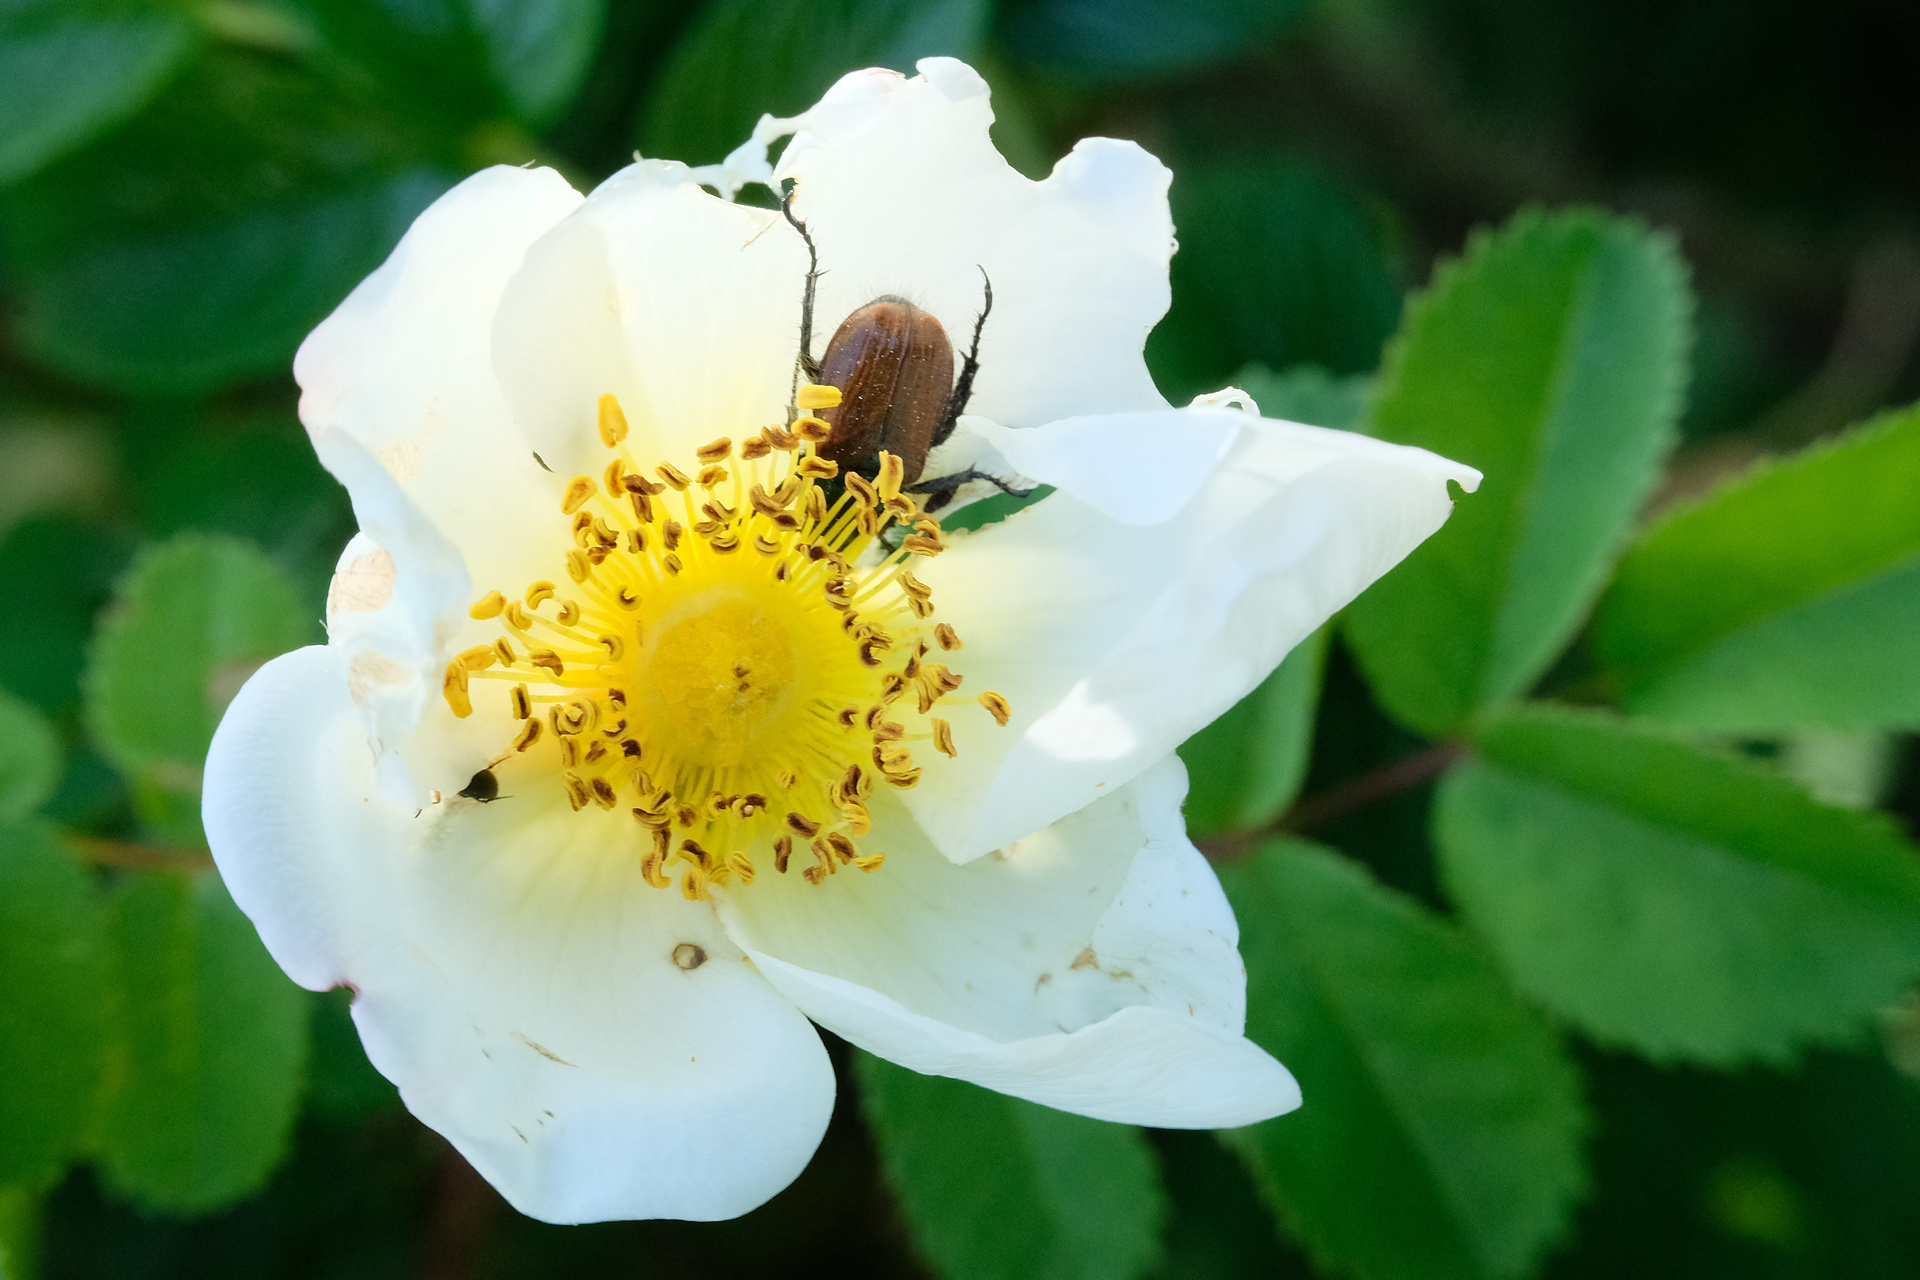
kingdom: Animalia
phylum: Arthropoda
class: Insecta
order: Coleoptera
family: Scarabaeidae
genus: Phyllopertha
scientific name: Phyllopertha horticola
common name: Garden chafer
